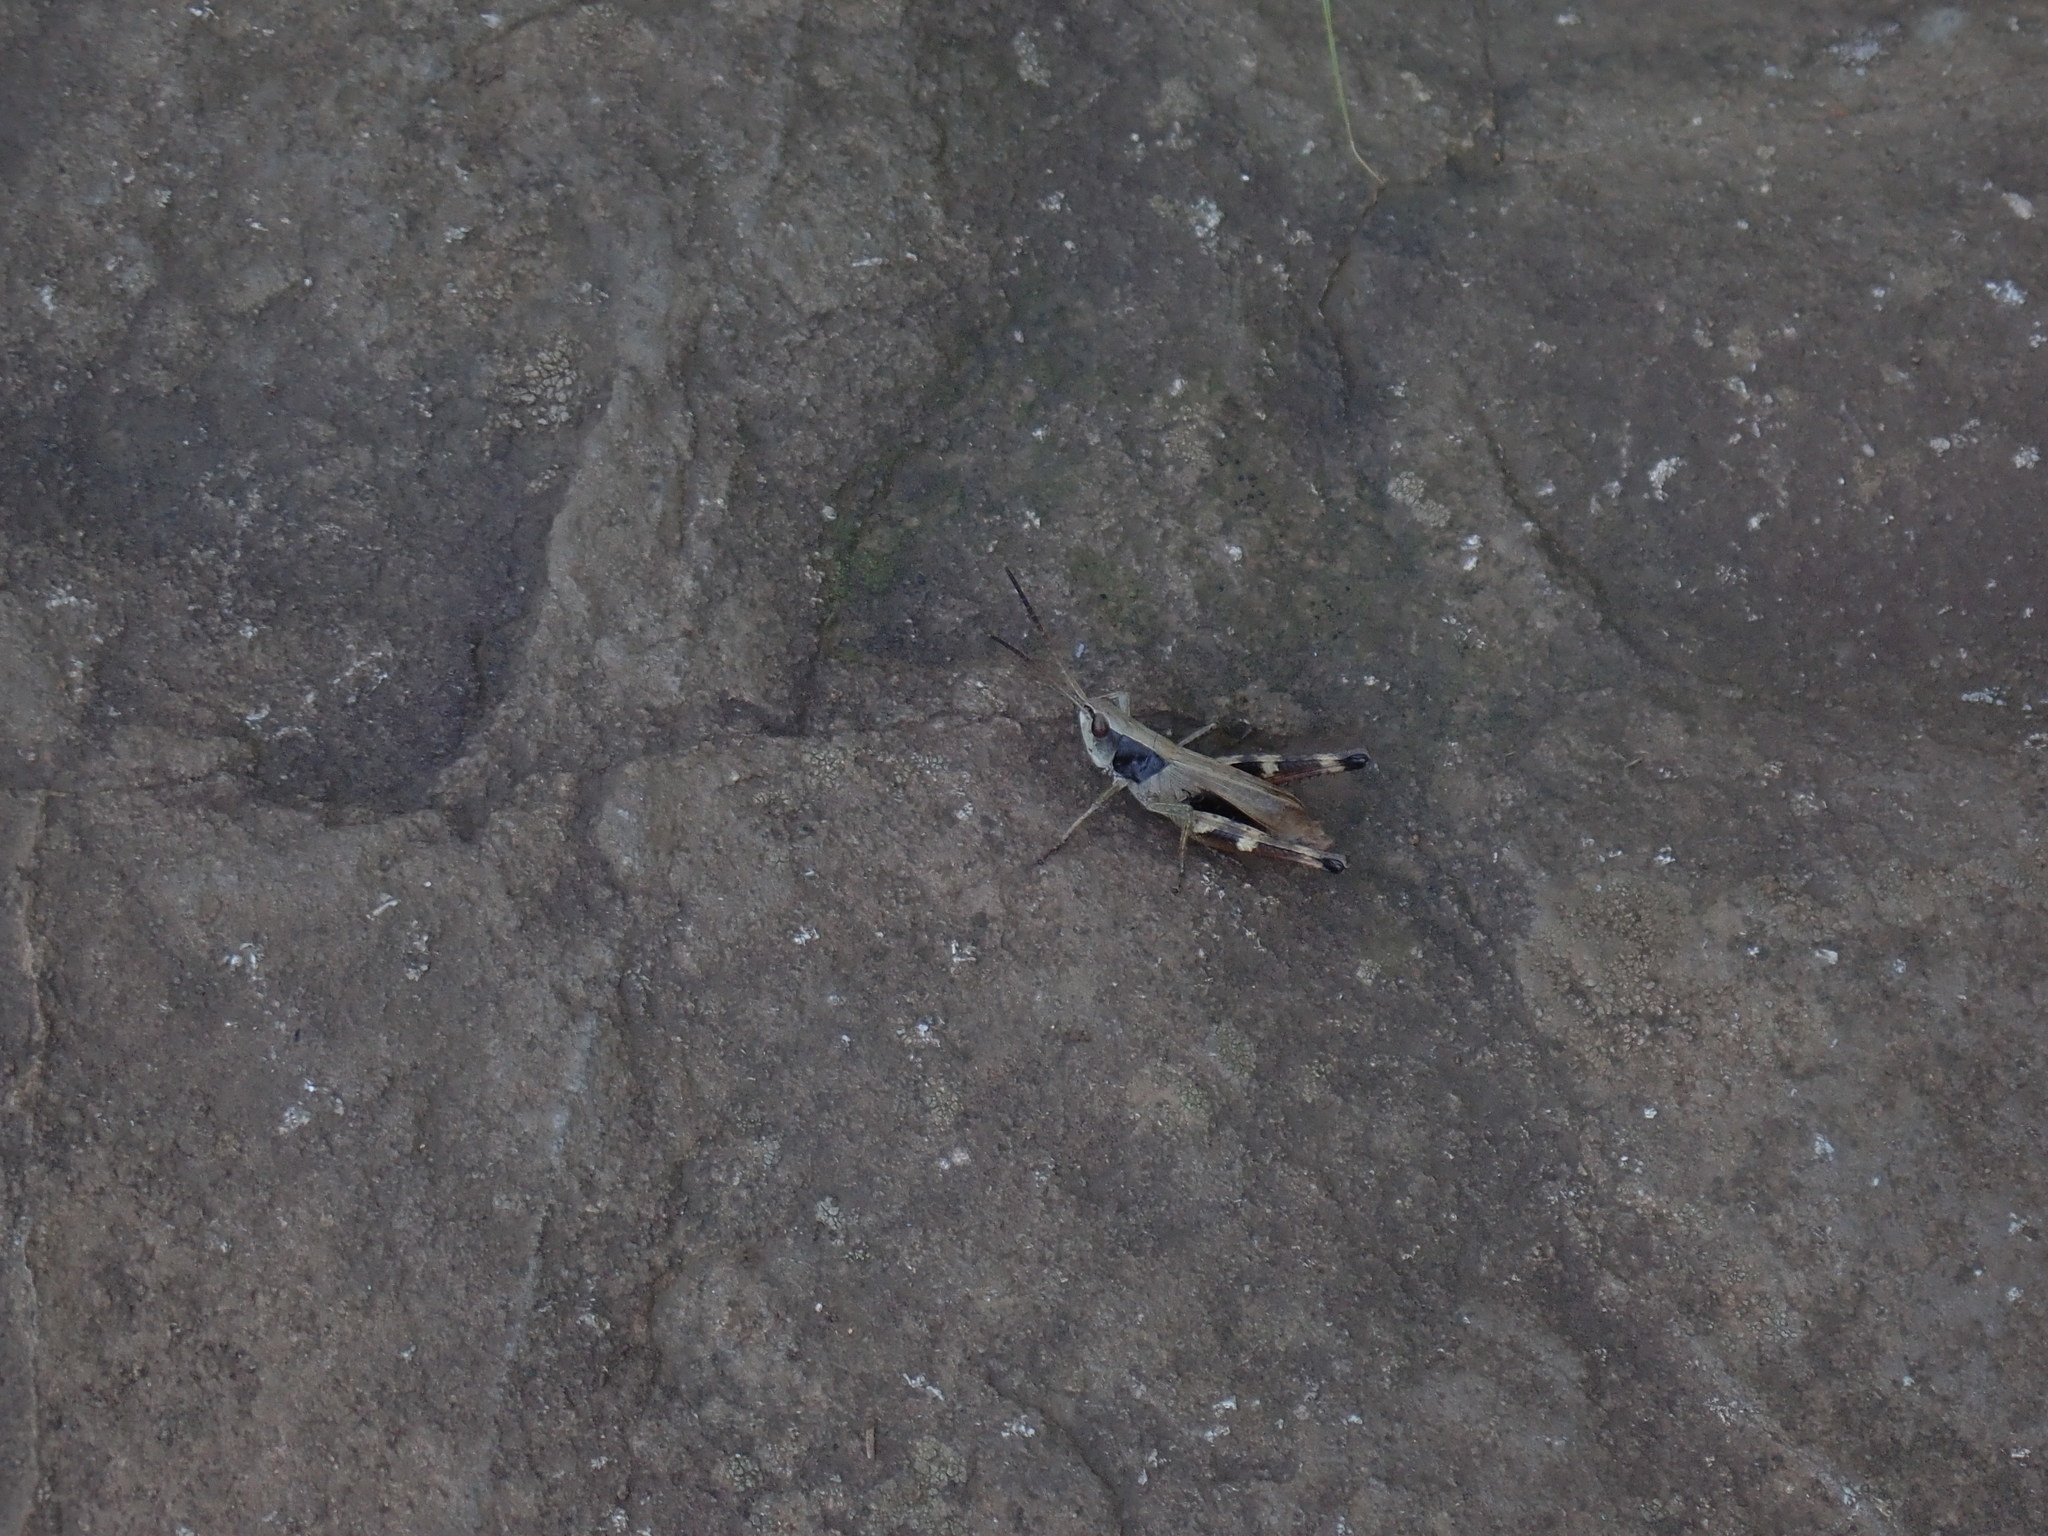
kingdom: Animalia
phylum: Arthropoda
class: Insecta
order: Orthoptera
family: Acrididae
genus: Chloealtis
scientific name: Chloealtis conspersa
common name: Sprinkled broad-winged grasshopper
